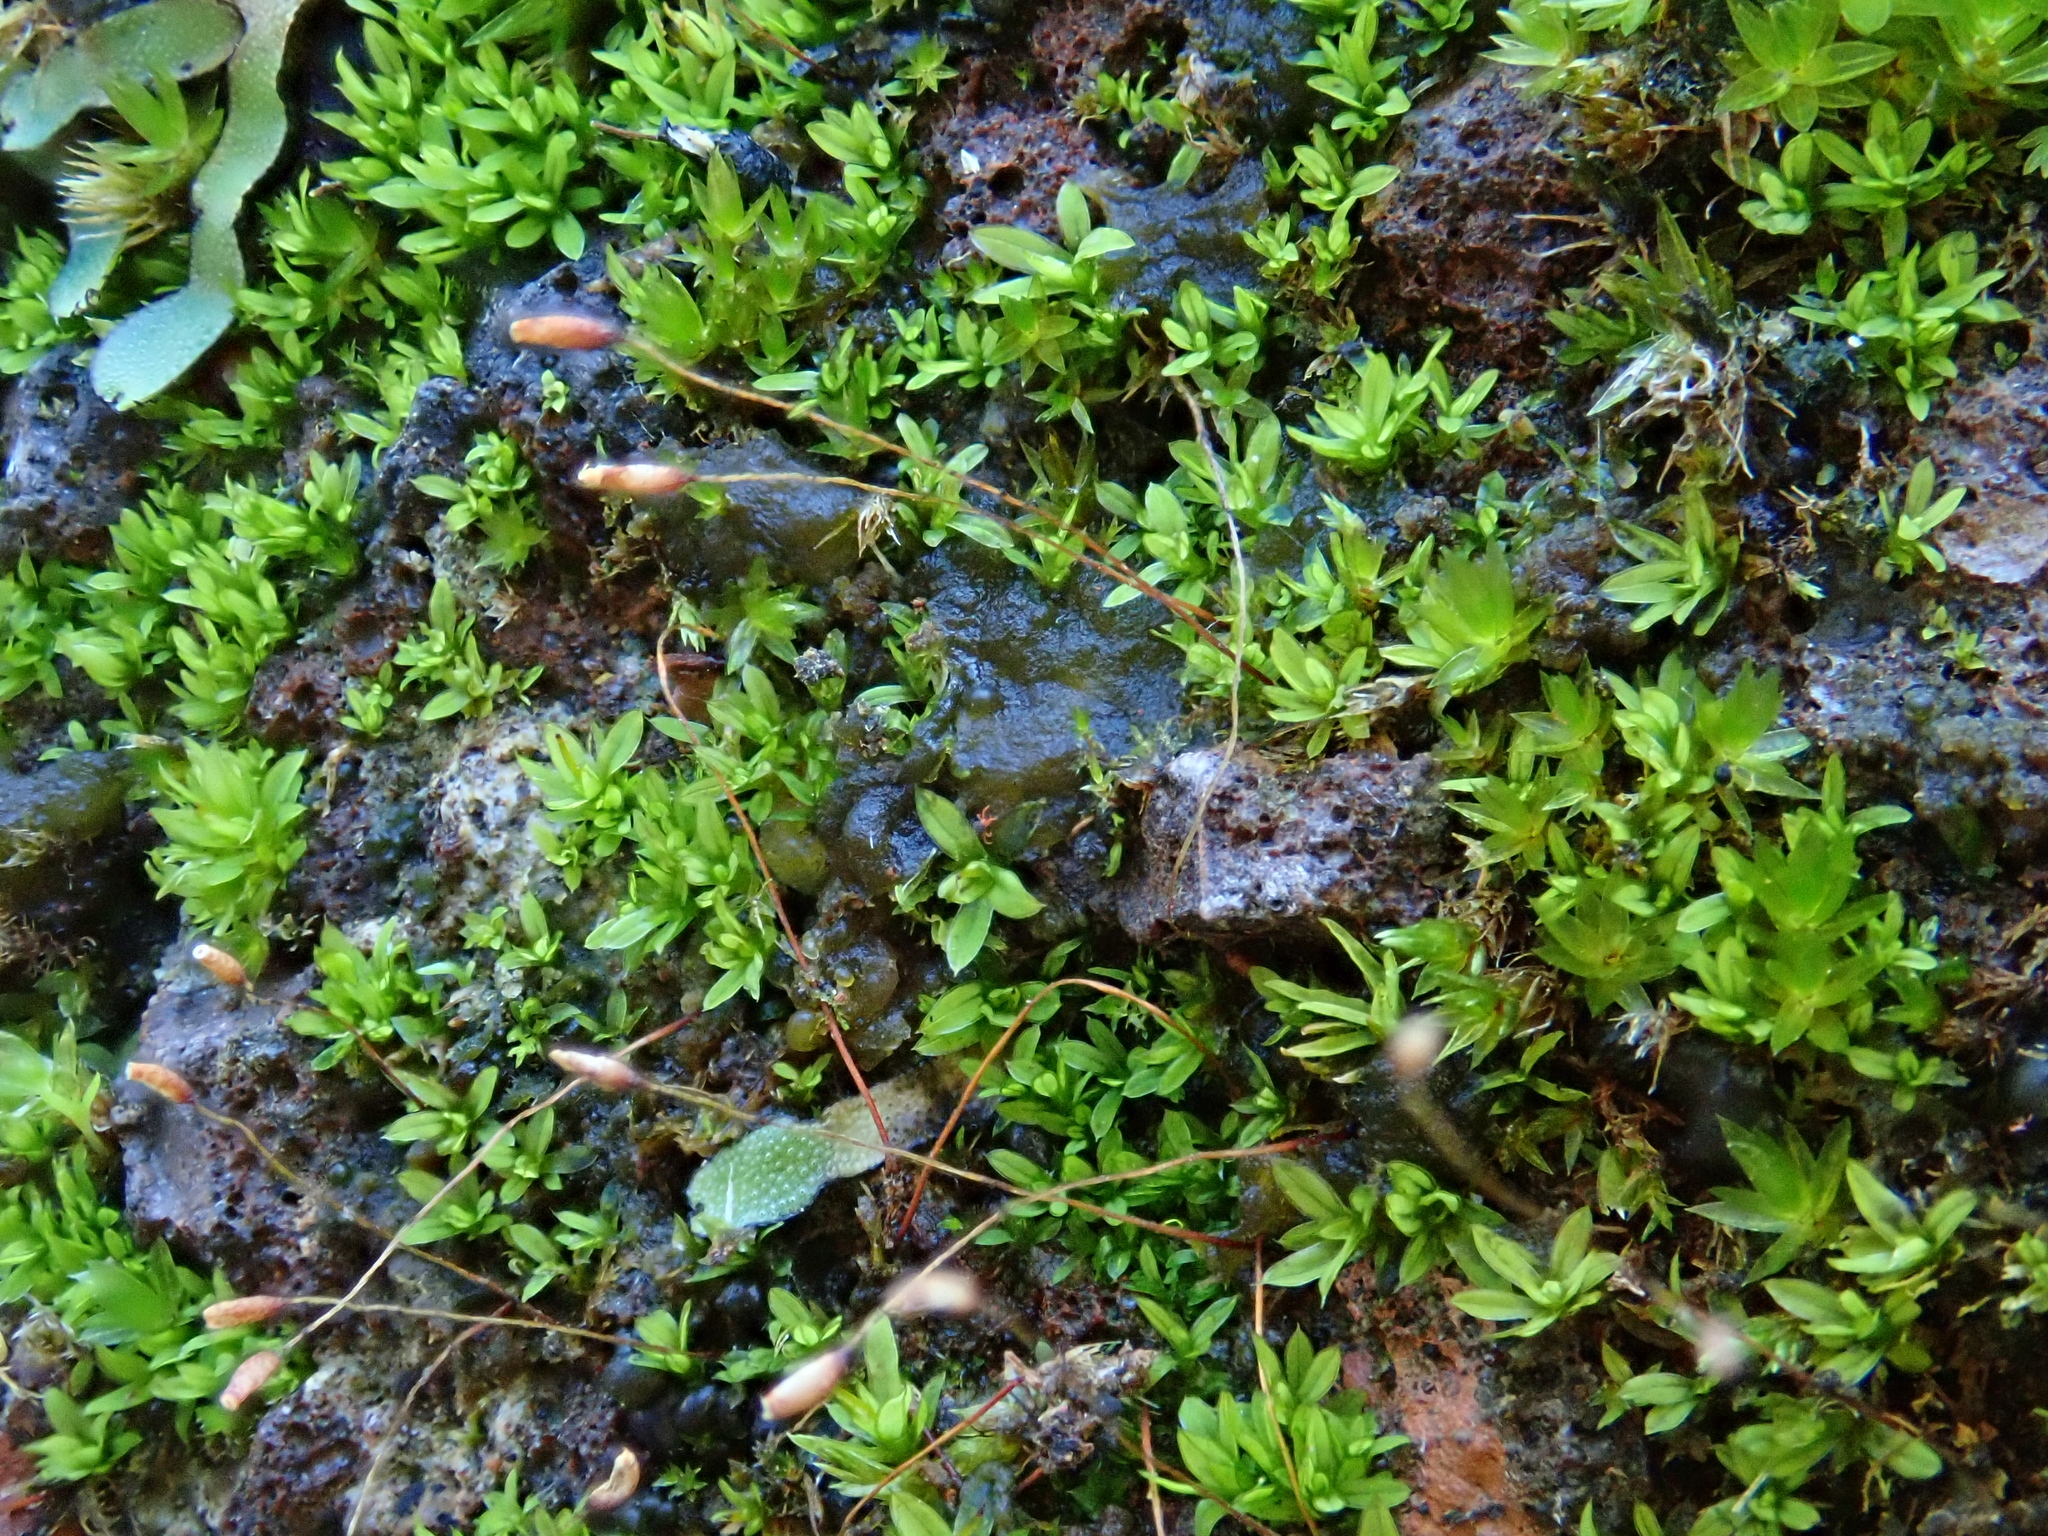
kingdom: Plantae
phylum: Bryophyta
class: Bryopsida
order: Pottiales
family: Pottiaceae
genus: Tortula
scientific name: Tortula solmsii
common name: Solms' screw-moss
